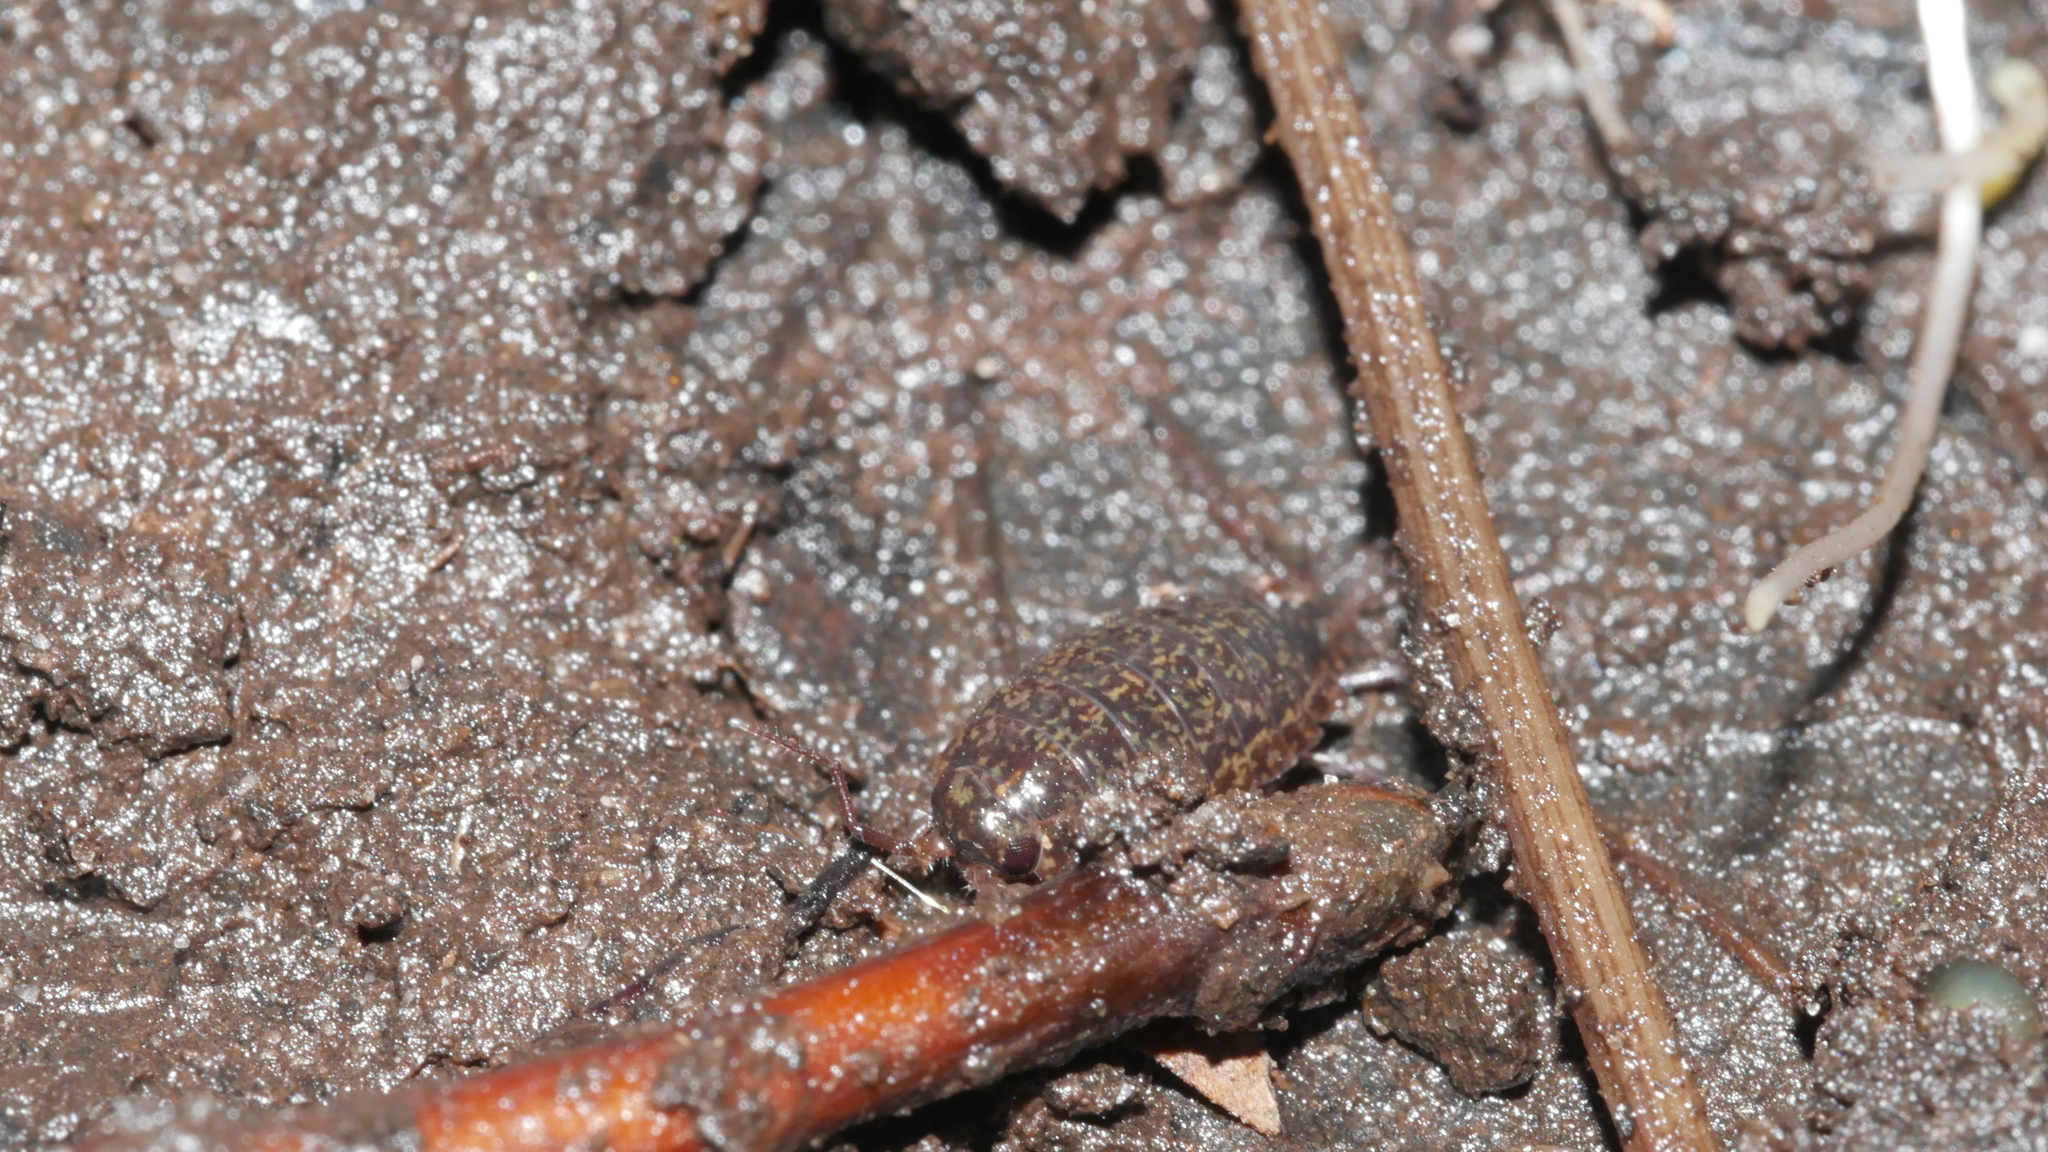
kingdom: Animalia
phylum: Arthropoda
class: Malacostraca
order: Isopoda
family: Ligiidae
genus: Ligidium
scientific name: Ligidium elrodii
